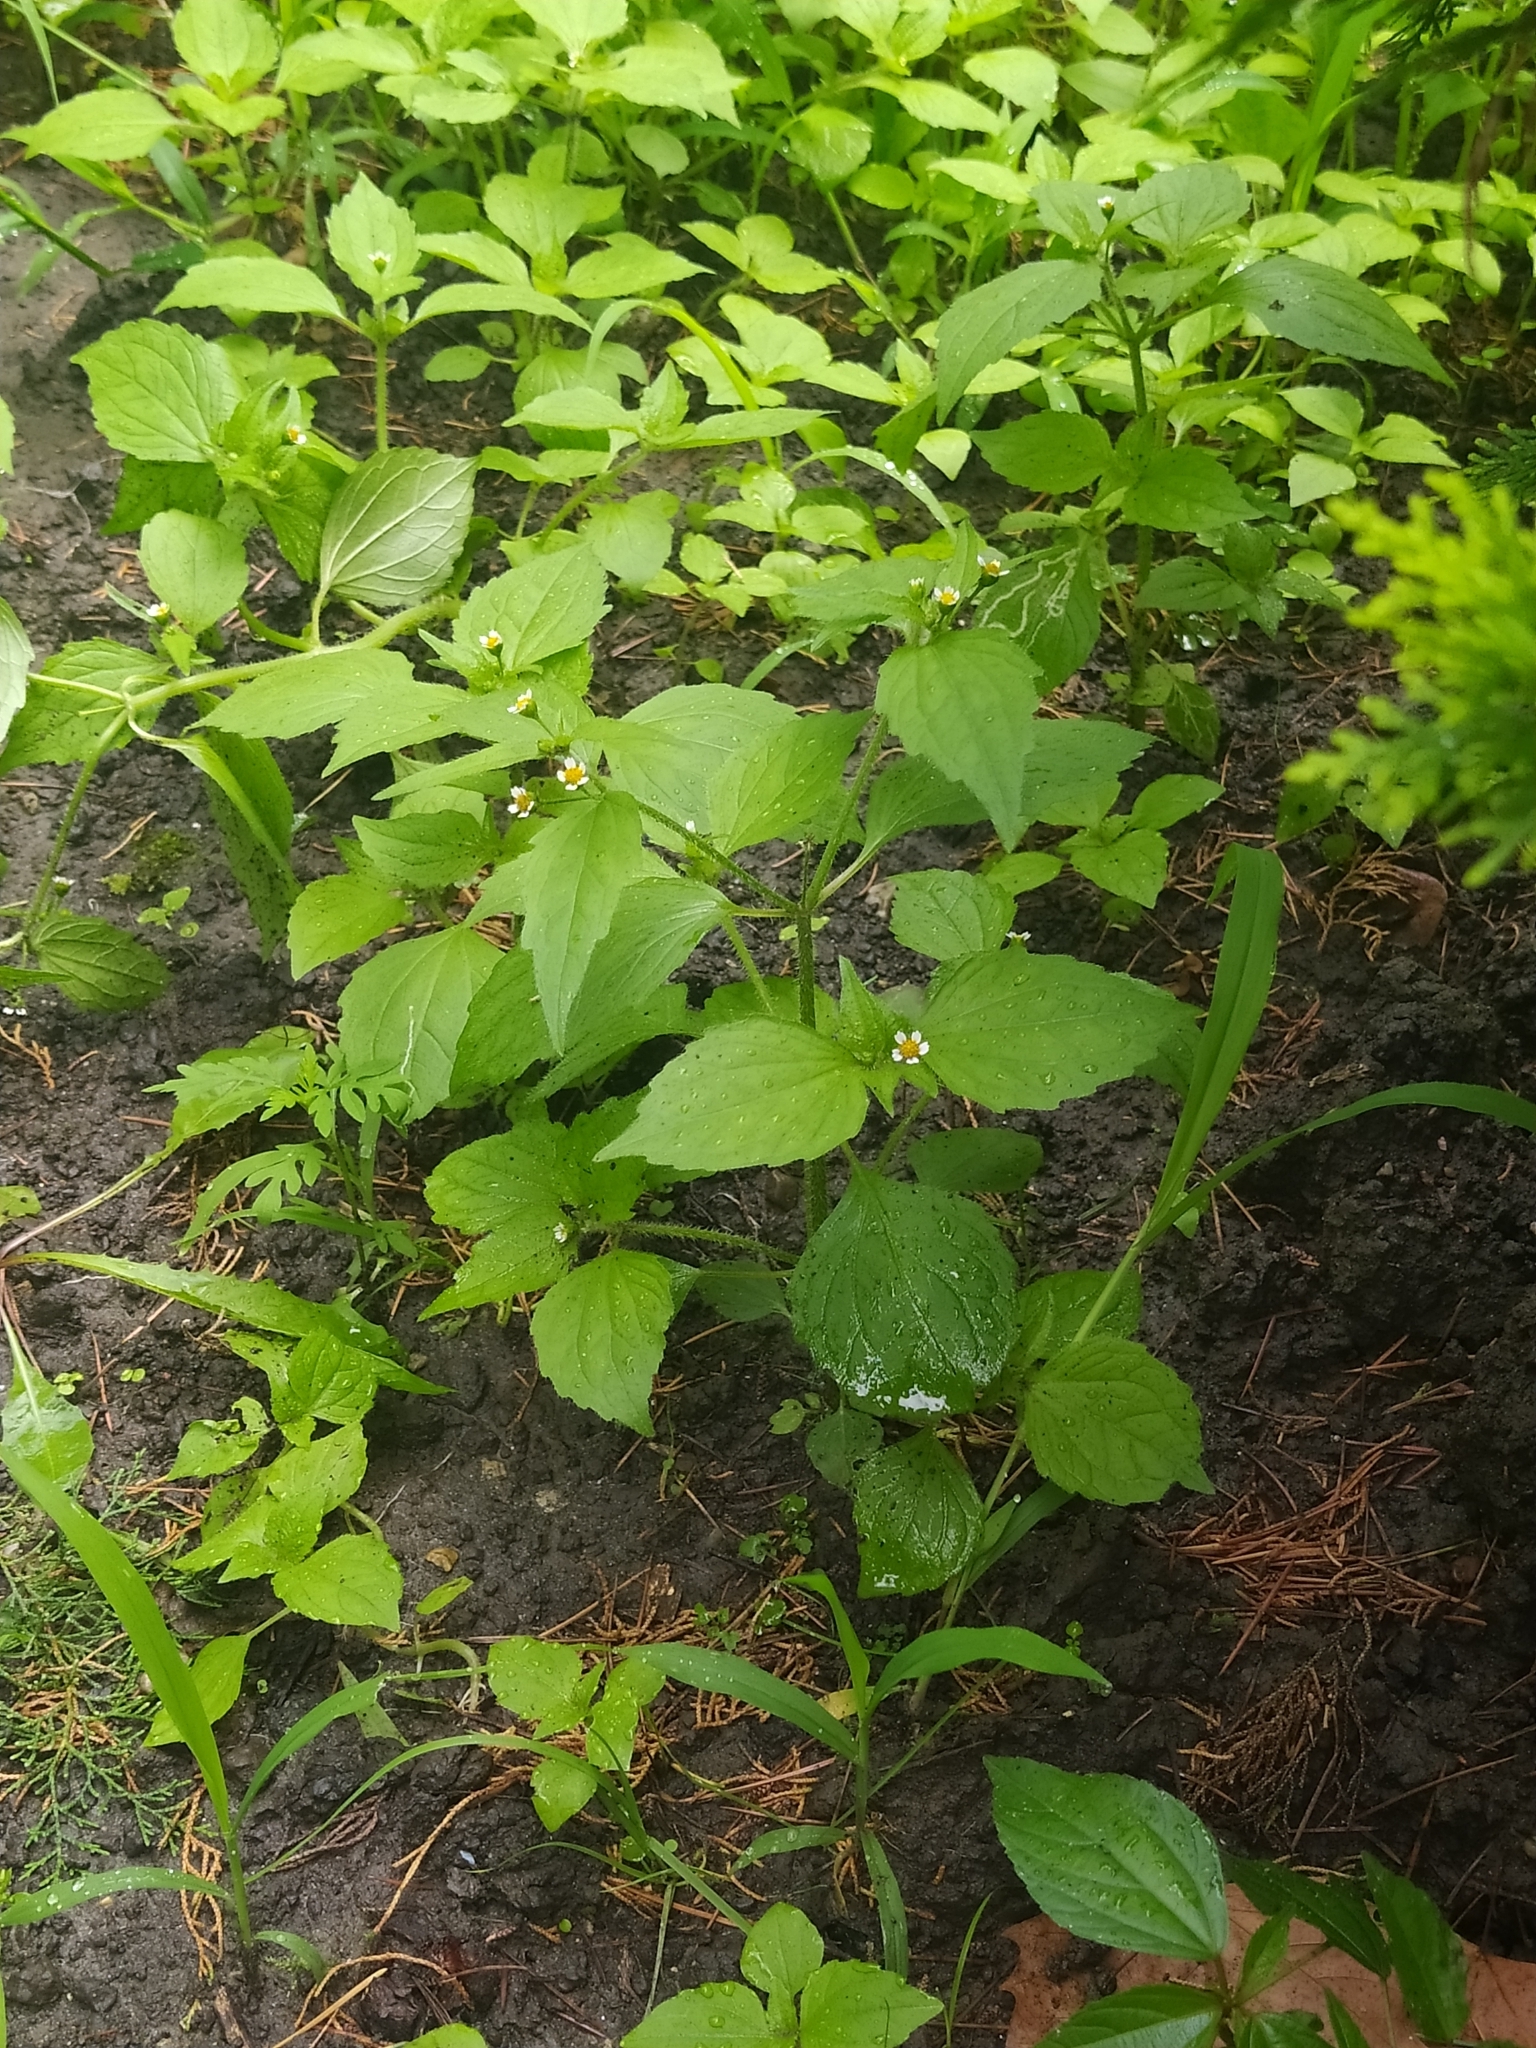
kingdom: Plantae
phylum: Tracheophyta
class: Magnoliopsida
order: Asterales
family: Asteraceae
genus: Galinsoga
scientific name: Galinsoga quadriradiata
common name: Shaggy soldier
